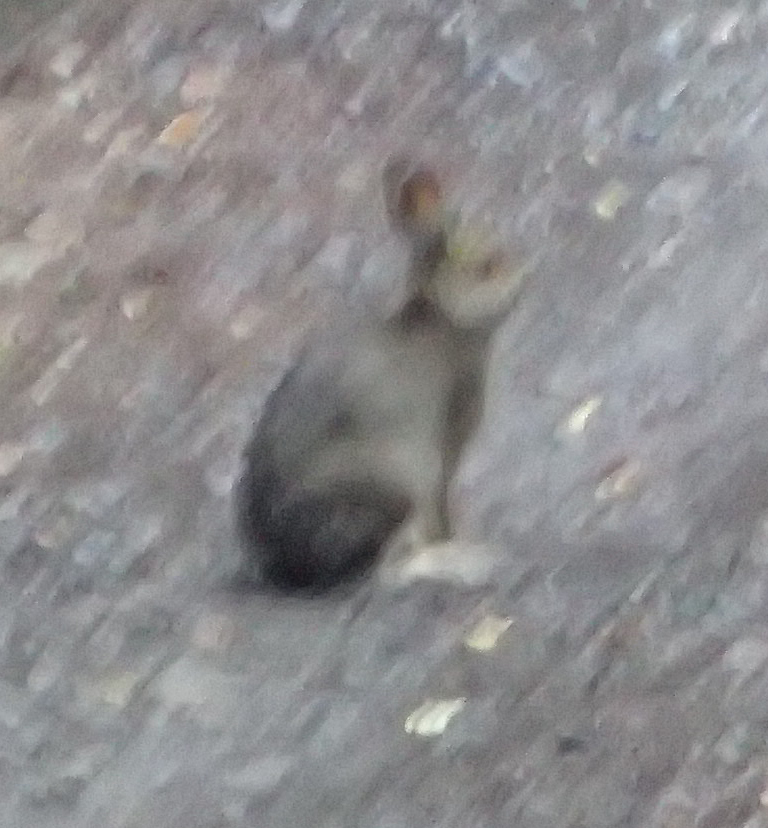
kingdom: Animalia
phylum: Chordata
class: Mammalia
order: Lagomorpha
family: Leporidae
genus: Lepus
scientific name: Lepus americanus
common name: Snowshoe hare
